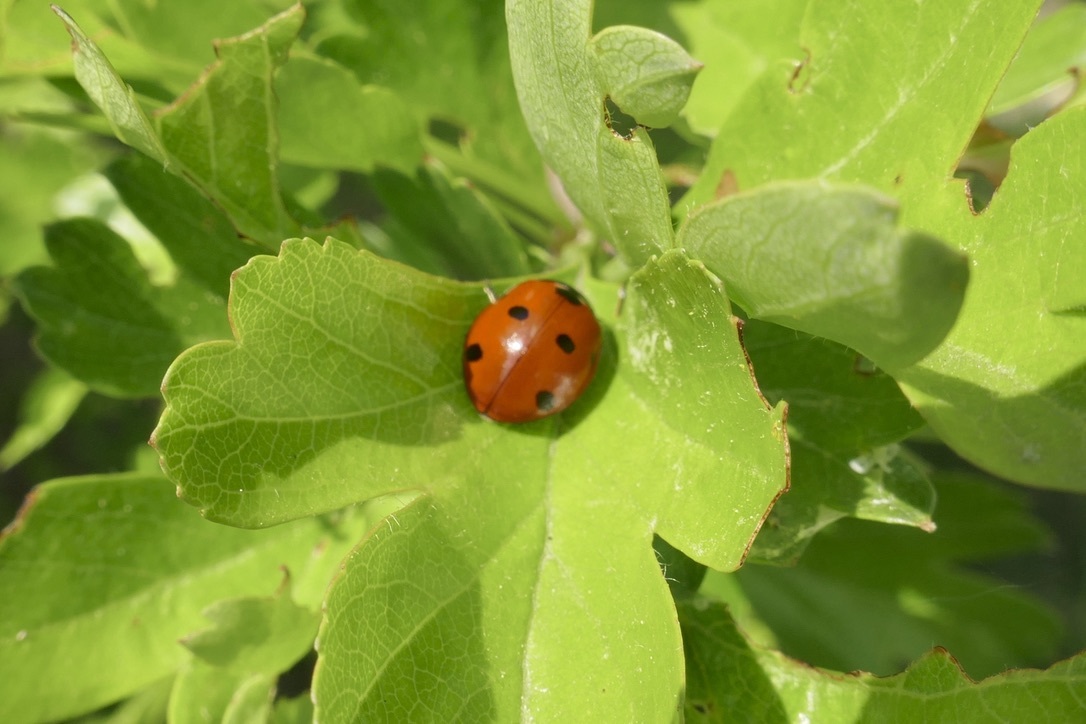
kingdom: Animalia
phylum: Arthropoda
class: Insecta
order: Coleoptera
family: Coccinellidae
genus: Coccinella
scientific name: Coccinella septempunctata
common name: Sevenspotted lady beetle
